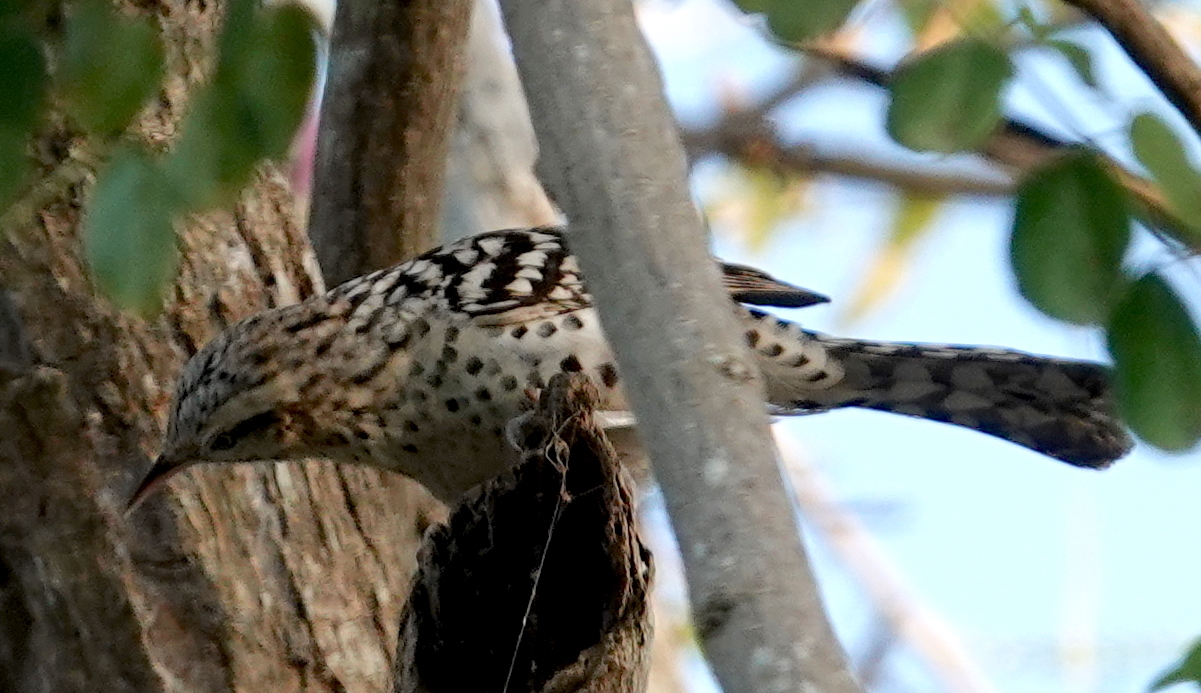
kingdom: Animalia
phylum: Chordata
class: Aves
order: Passeriformes
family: Troglodytidae
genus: Campylorhynchus
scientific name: Campylorhynchus nuchalis
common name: Stripe-backed wren
